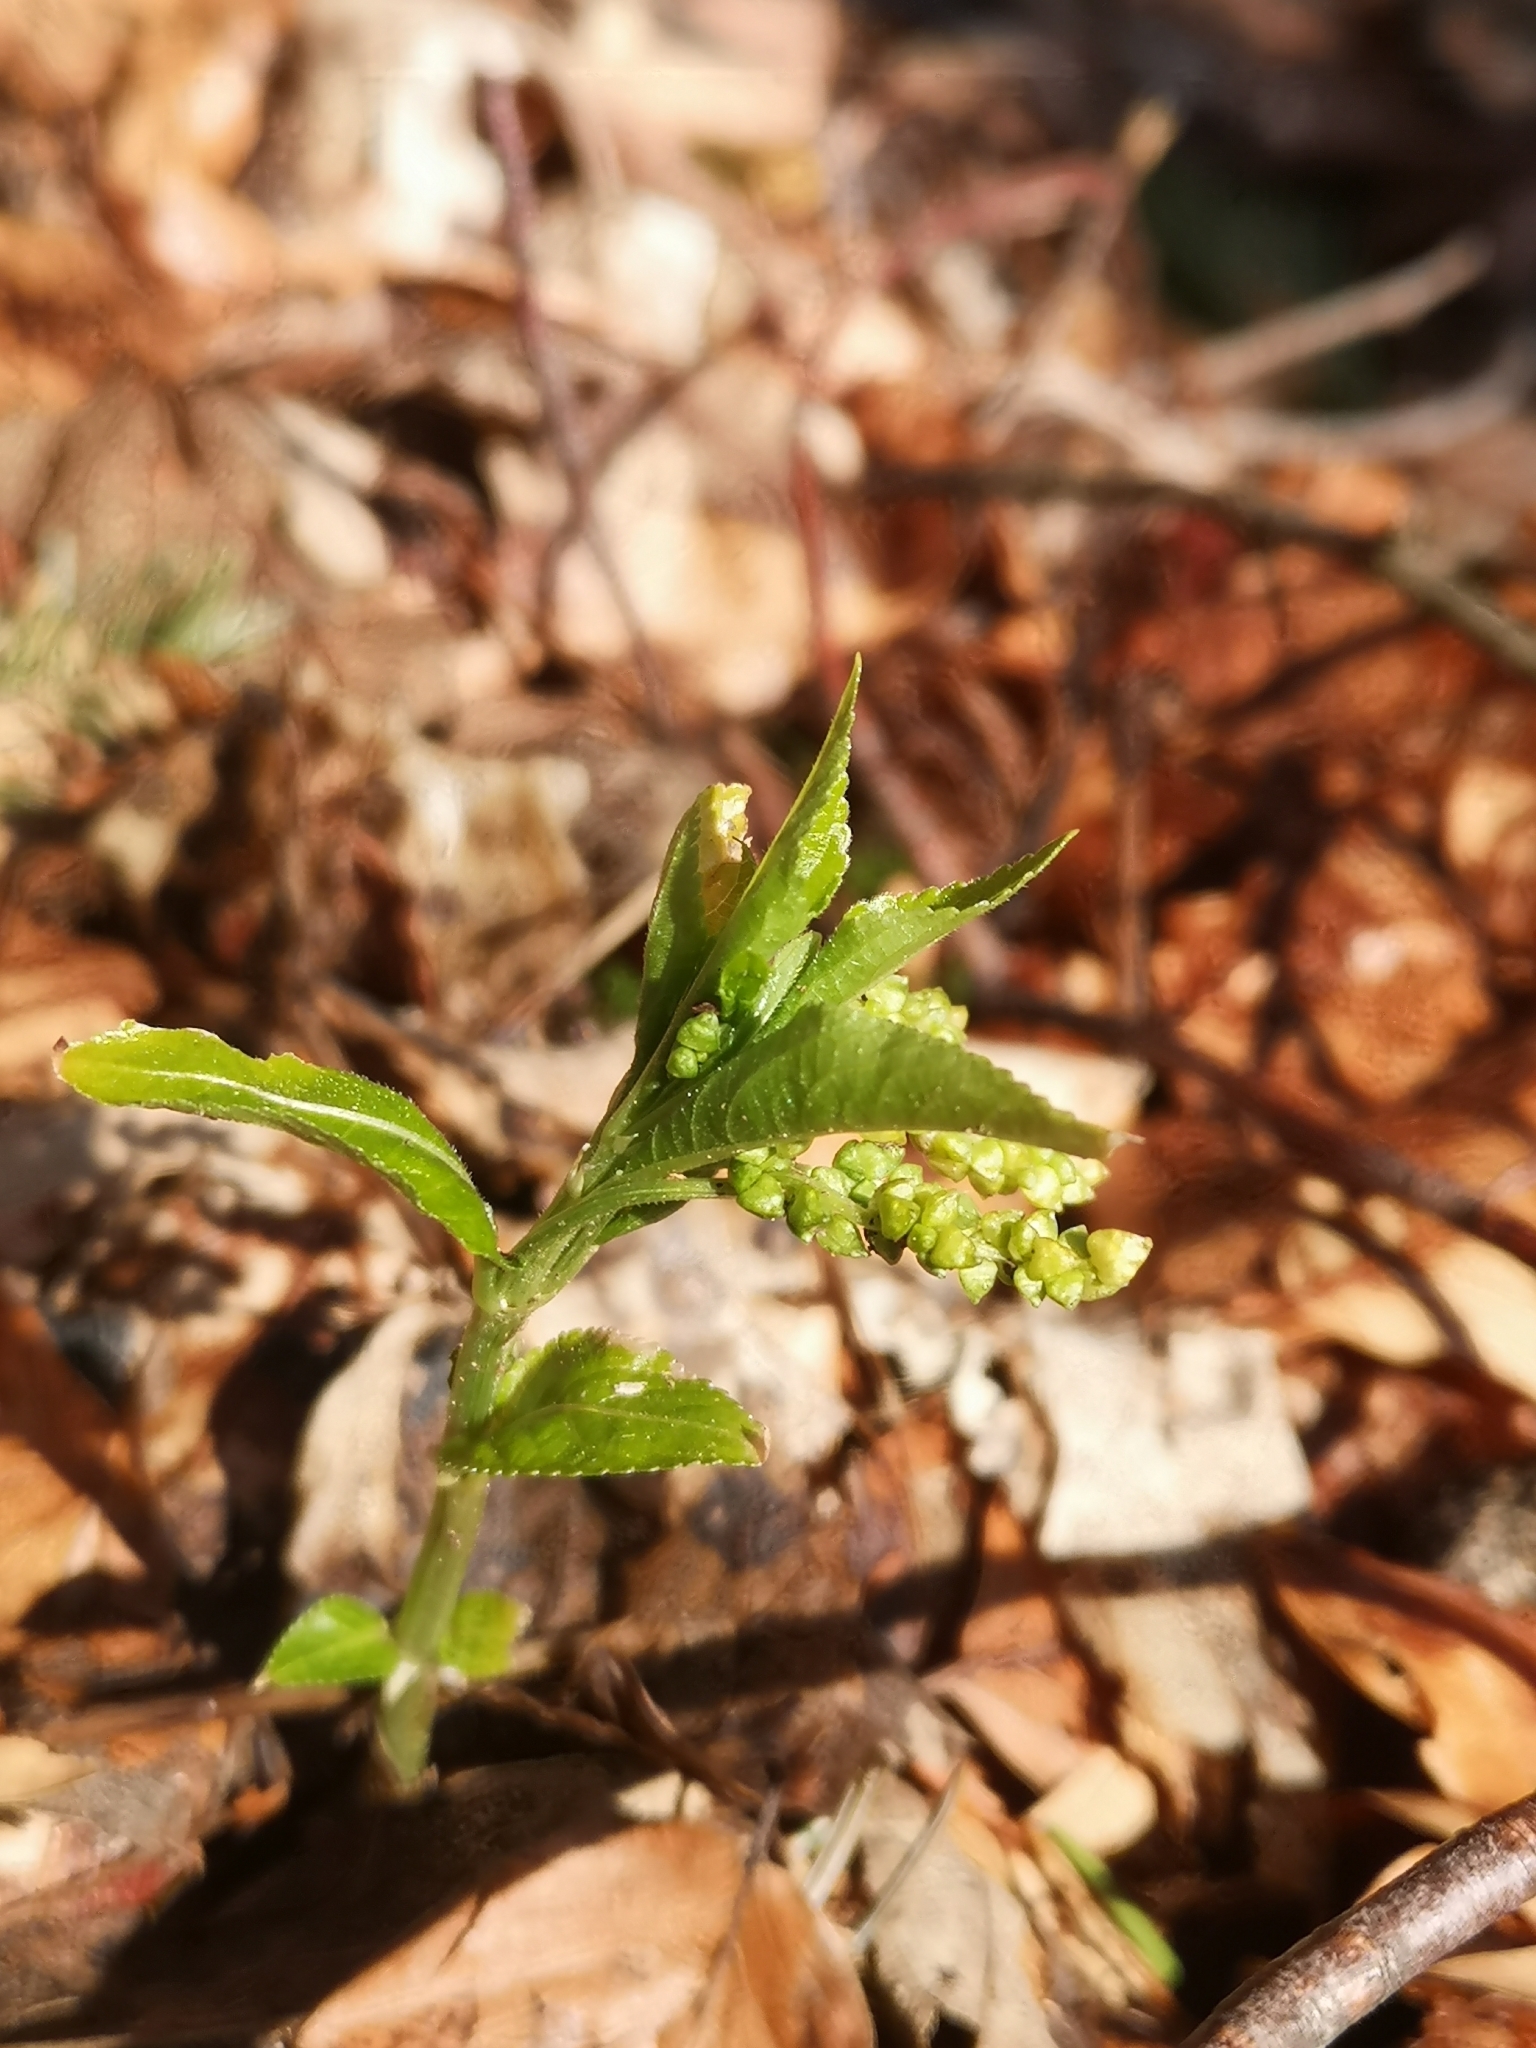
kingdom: Plantae
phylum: Tracheophyta
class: Magnoliopsida
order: Malpighiales
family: Euphorbiaceae
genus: Mercurialis
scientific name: Mercurialis perennis
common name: Dog mercury
